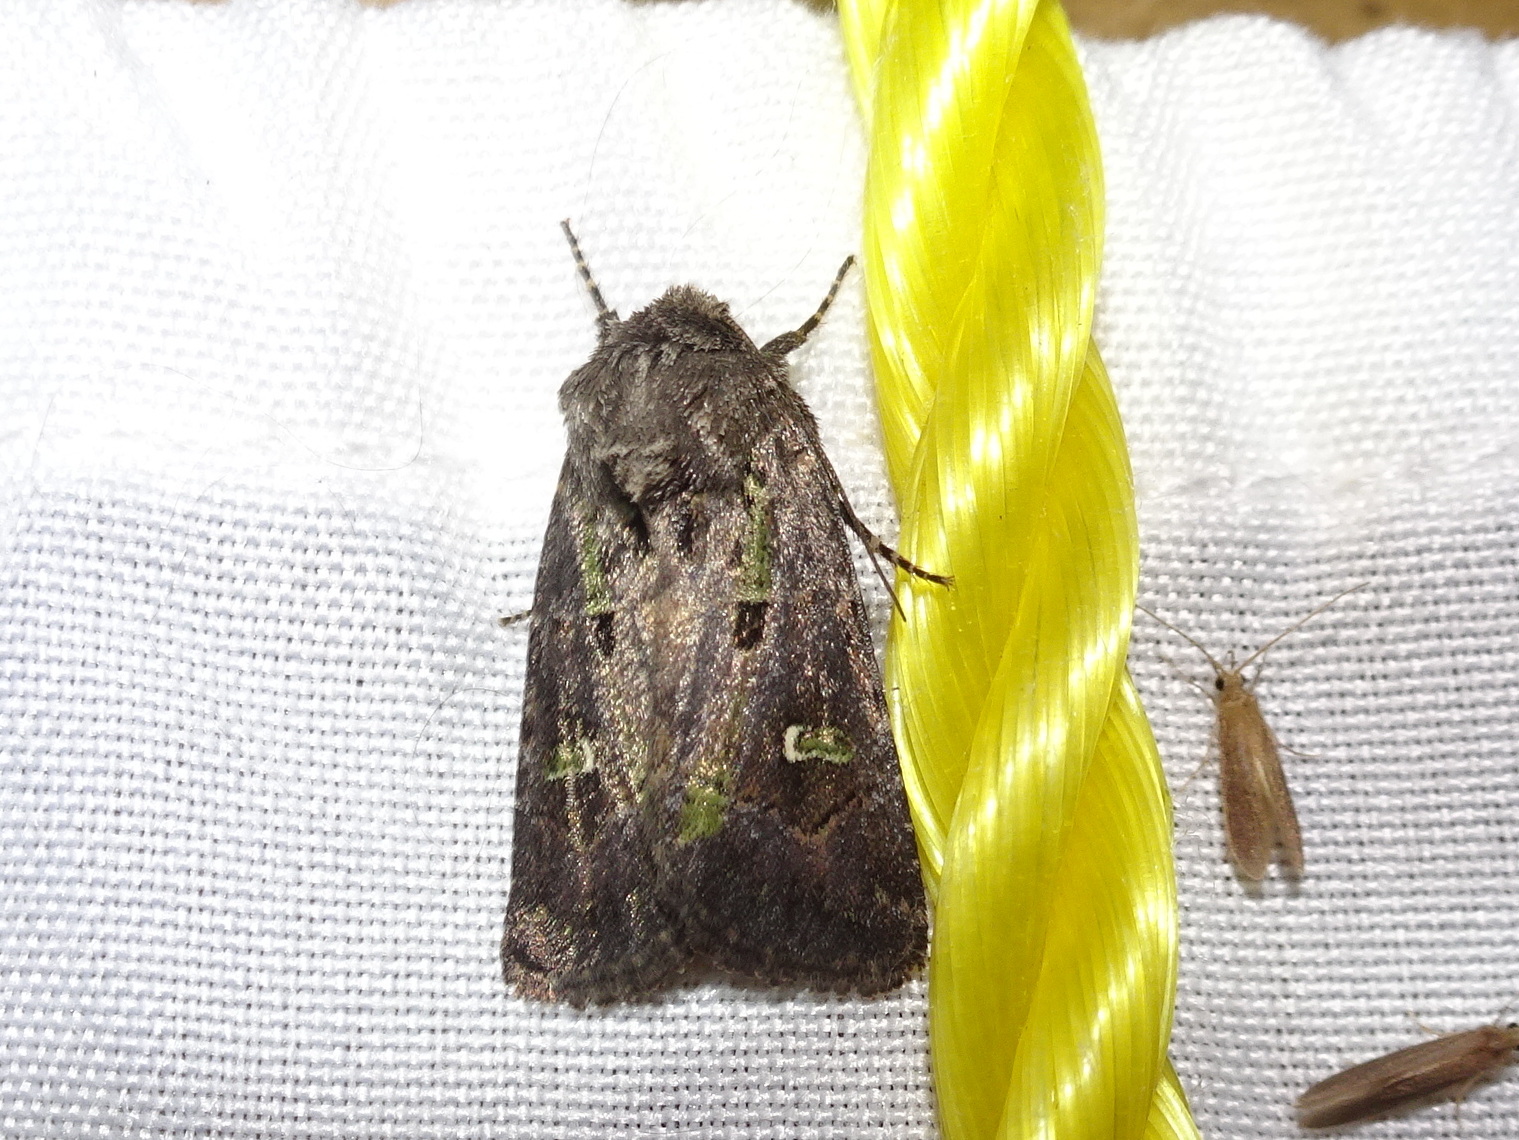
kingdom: Animalia
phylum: Arthropoda
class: Insecta
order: Lepidoptera
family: Noctuidae
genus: Lacinipolia
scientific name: Lacinipolia renigera
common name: Kidney-spotted minor
